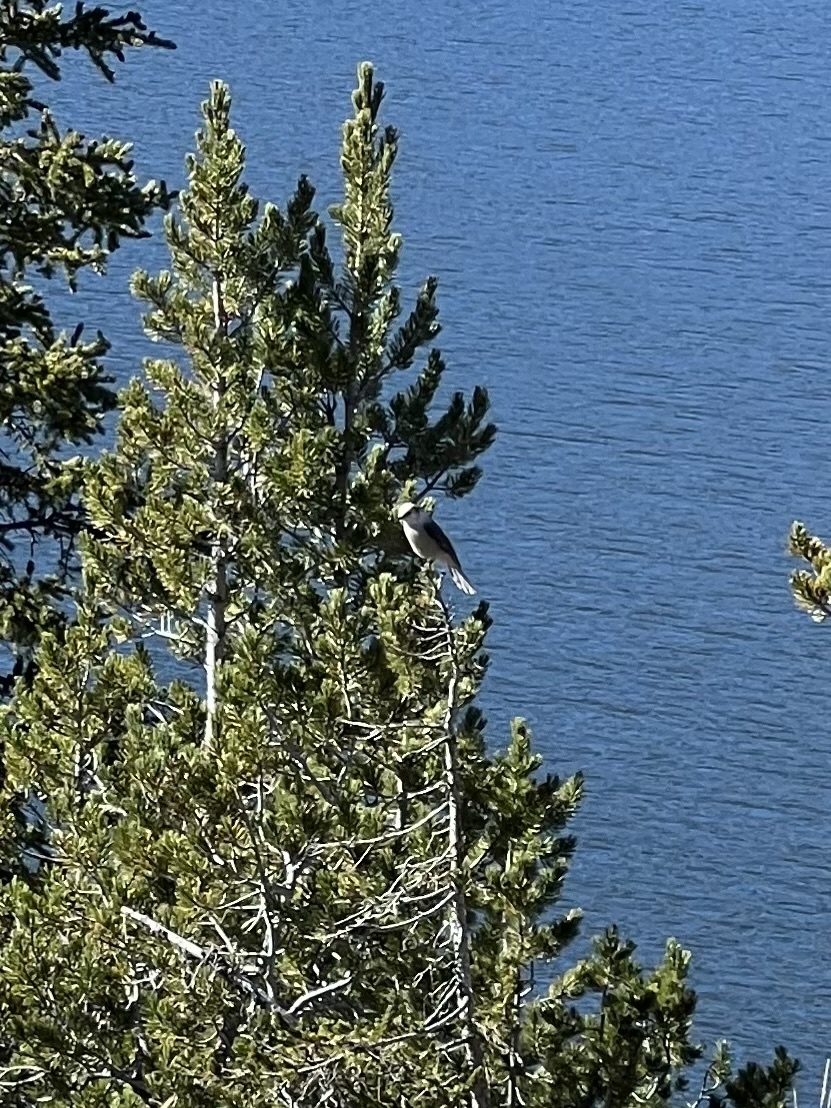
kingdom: Animalia
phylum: Chordata
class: Aves
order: Passeriformes
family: Corvidae
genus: Perisoreus
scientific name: Perisoreus canadensis
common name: Gray jay
